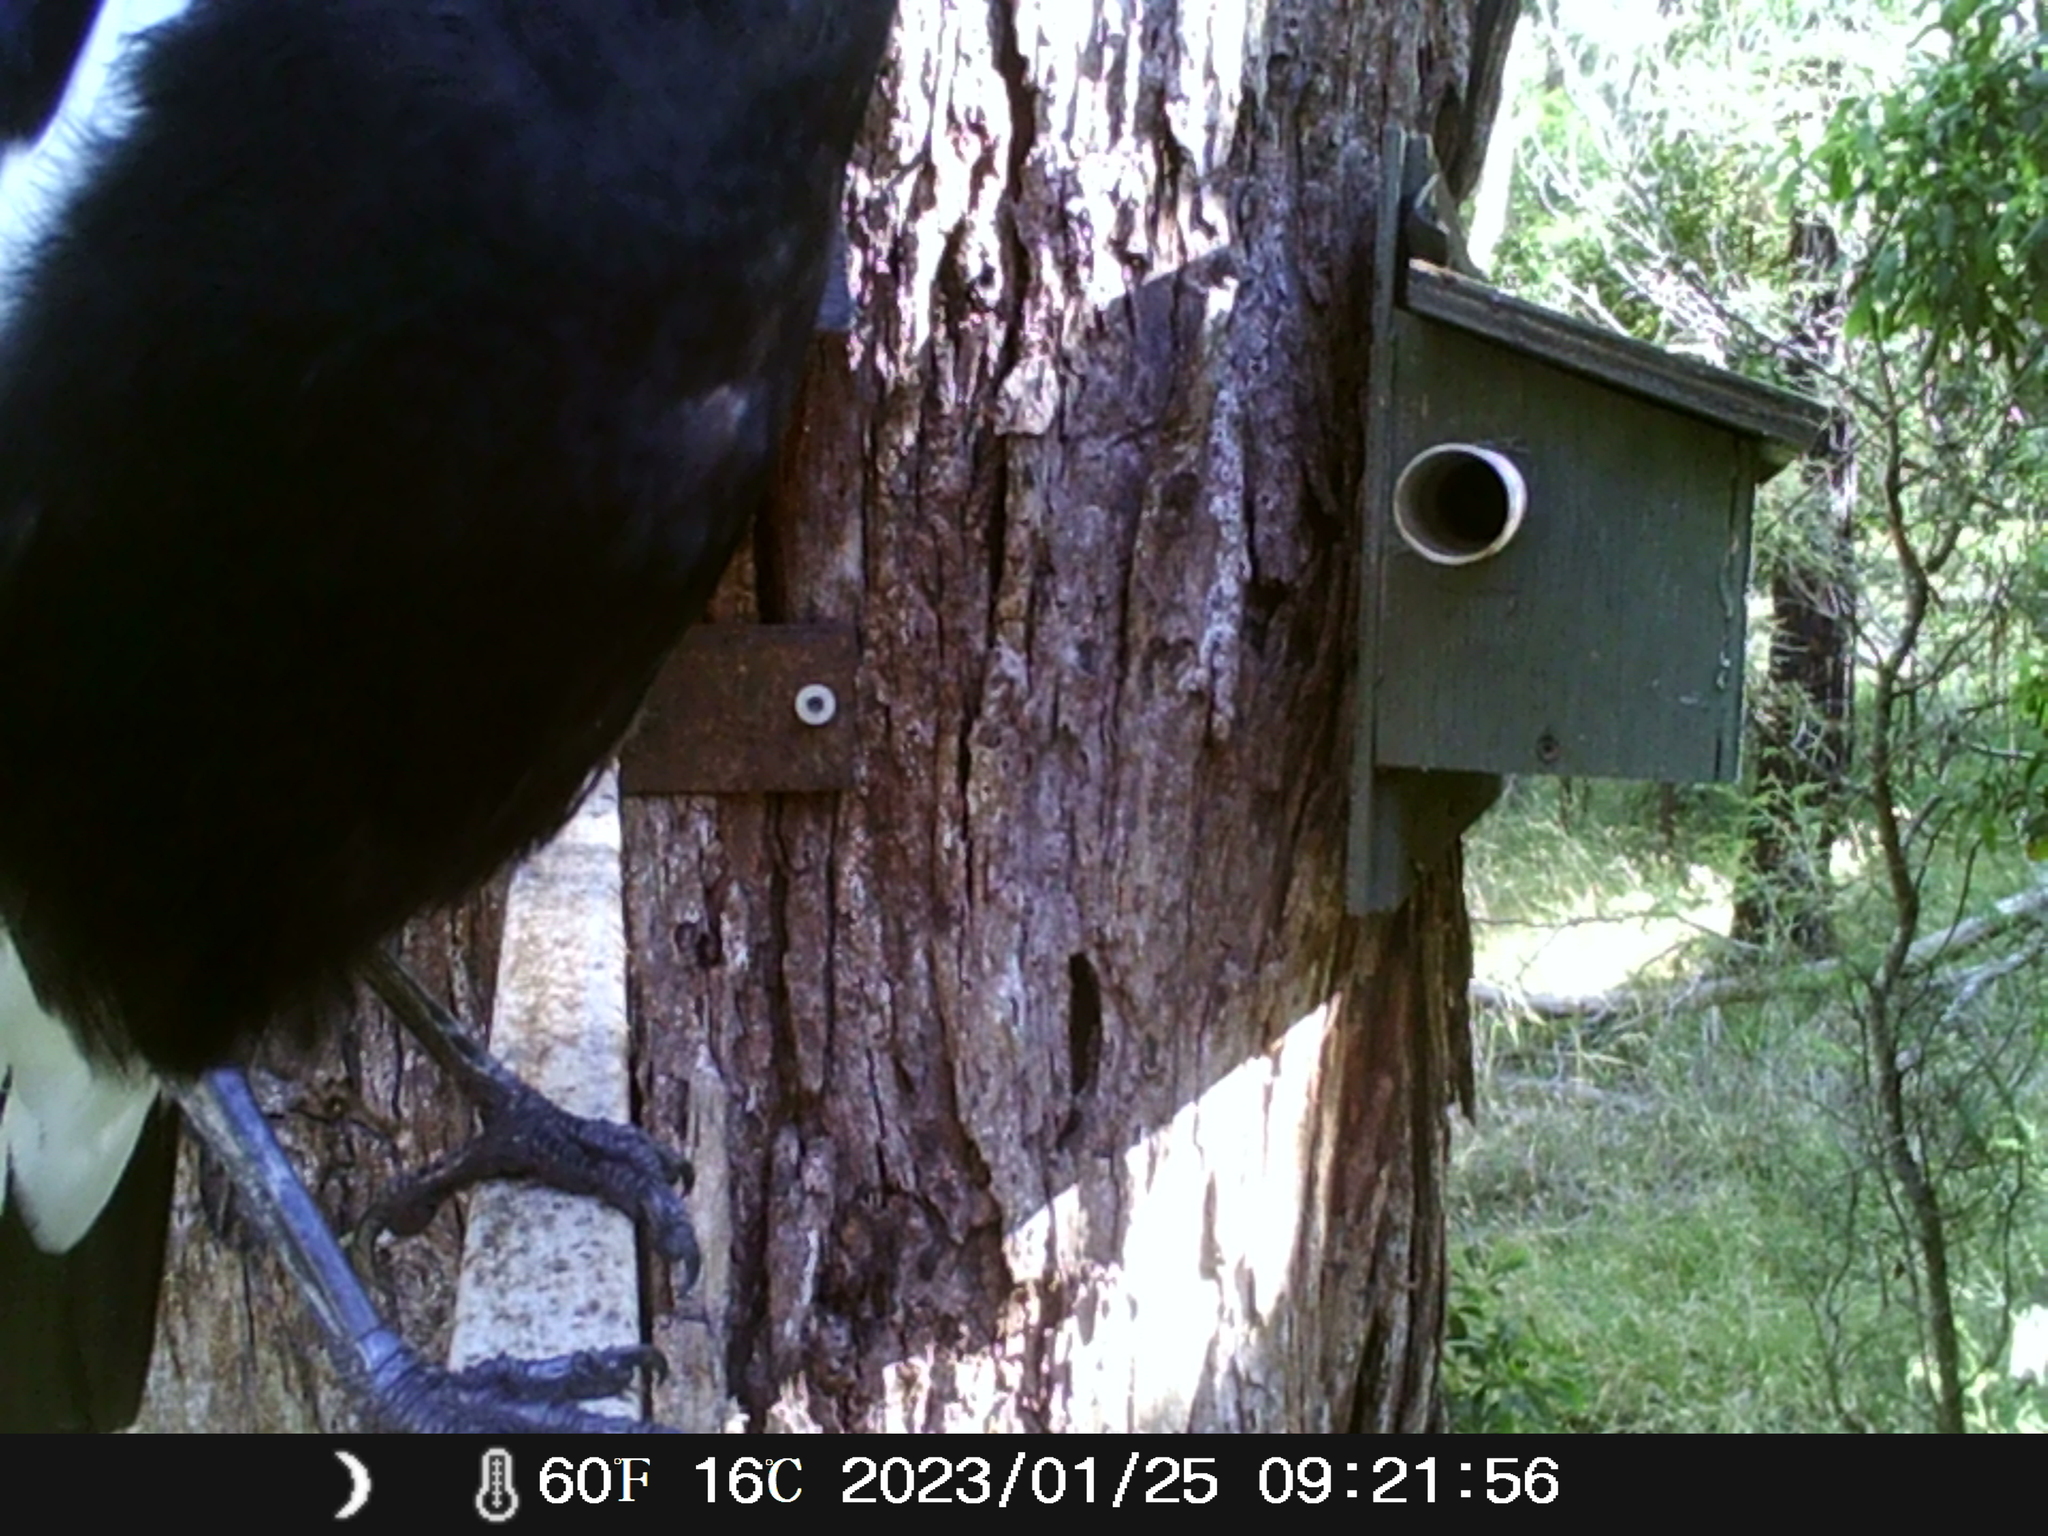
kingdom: Animalia
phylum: Chordata
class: Aves
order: Passeriformes
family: Cracticidae
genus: Gymnorhina
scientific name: Gymnorhina tibicen
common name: Australian magpie
